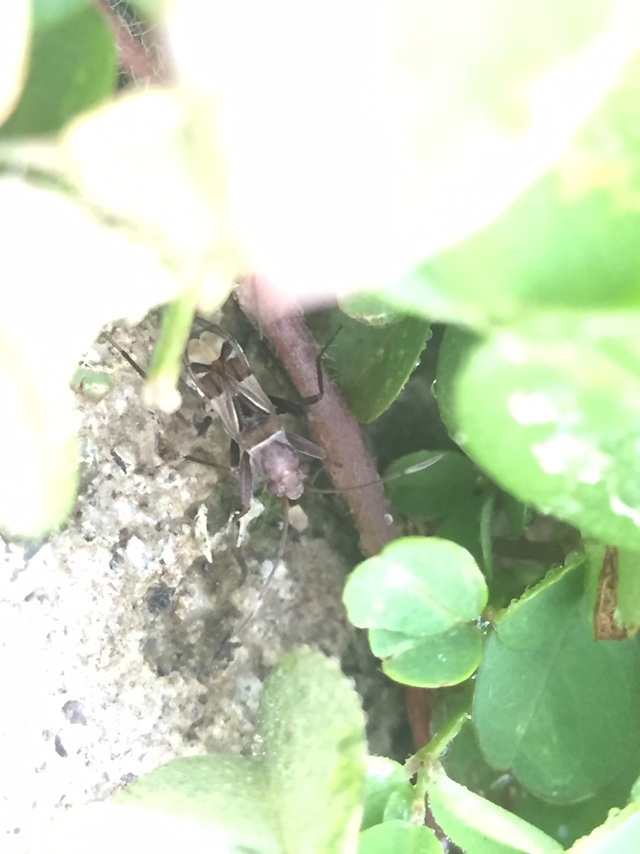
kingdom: Animalia
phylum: Arthropoda
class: Insecta
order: Hemiptera
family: Rhyparochromidae
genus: Poeantius
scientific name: Poeantius festivus
